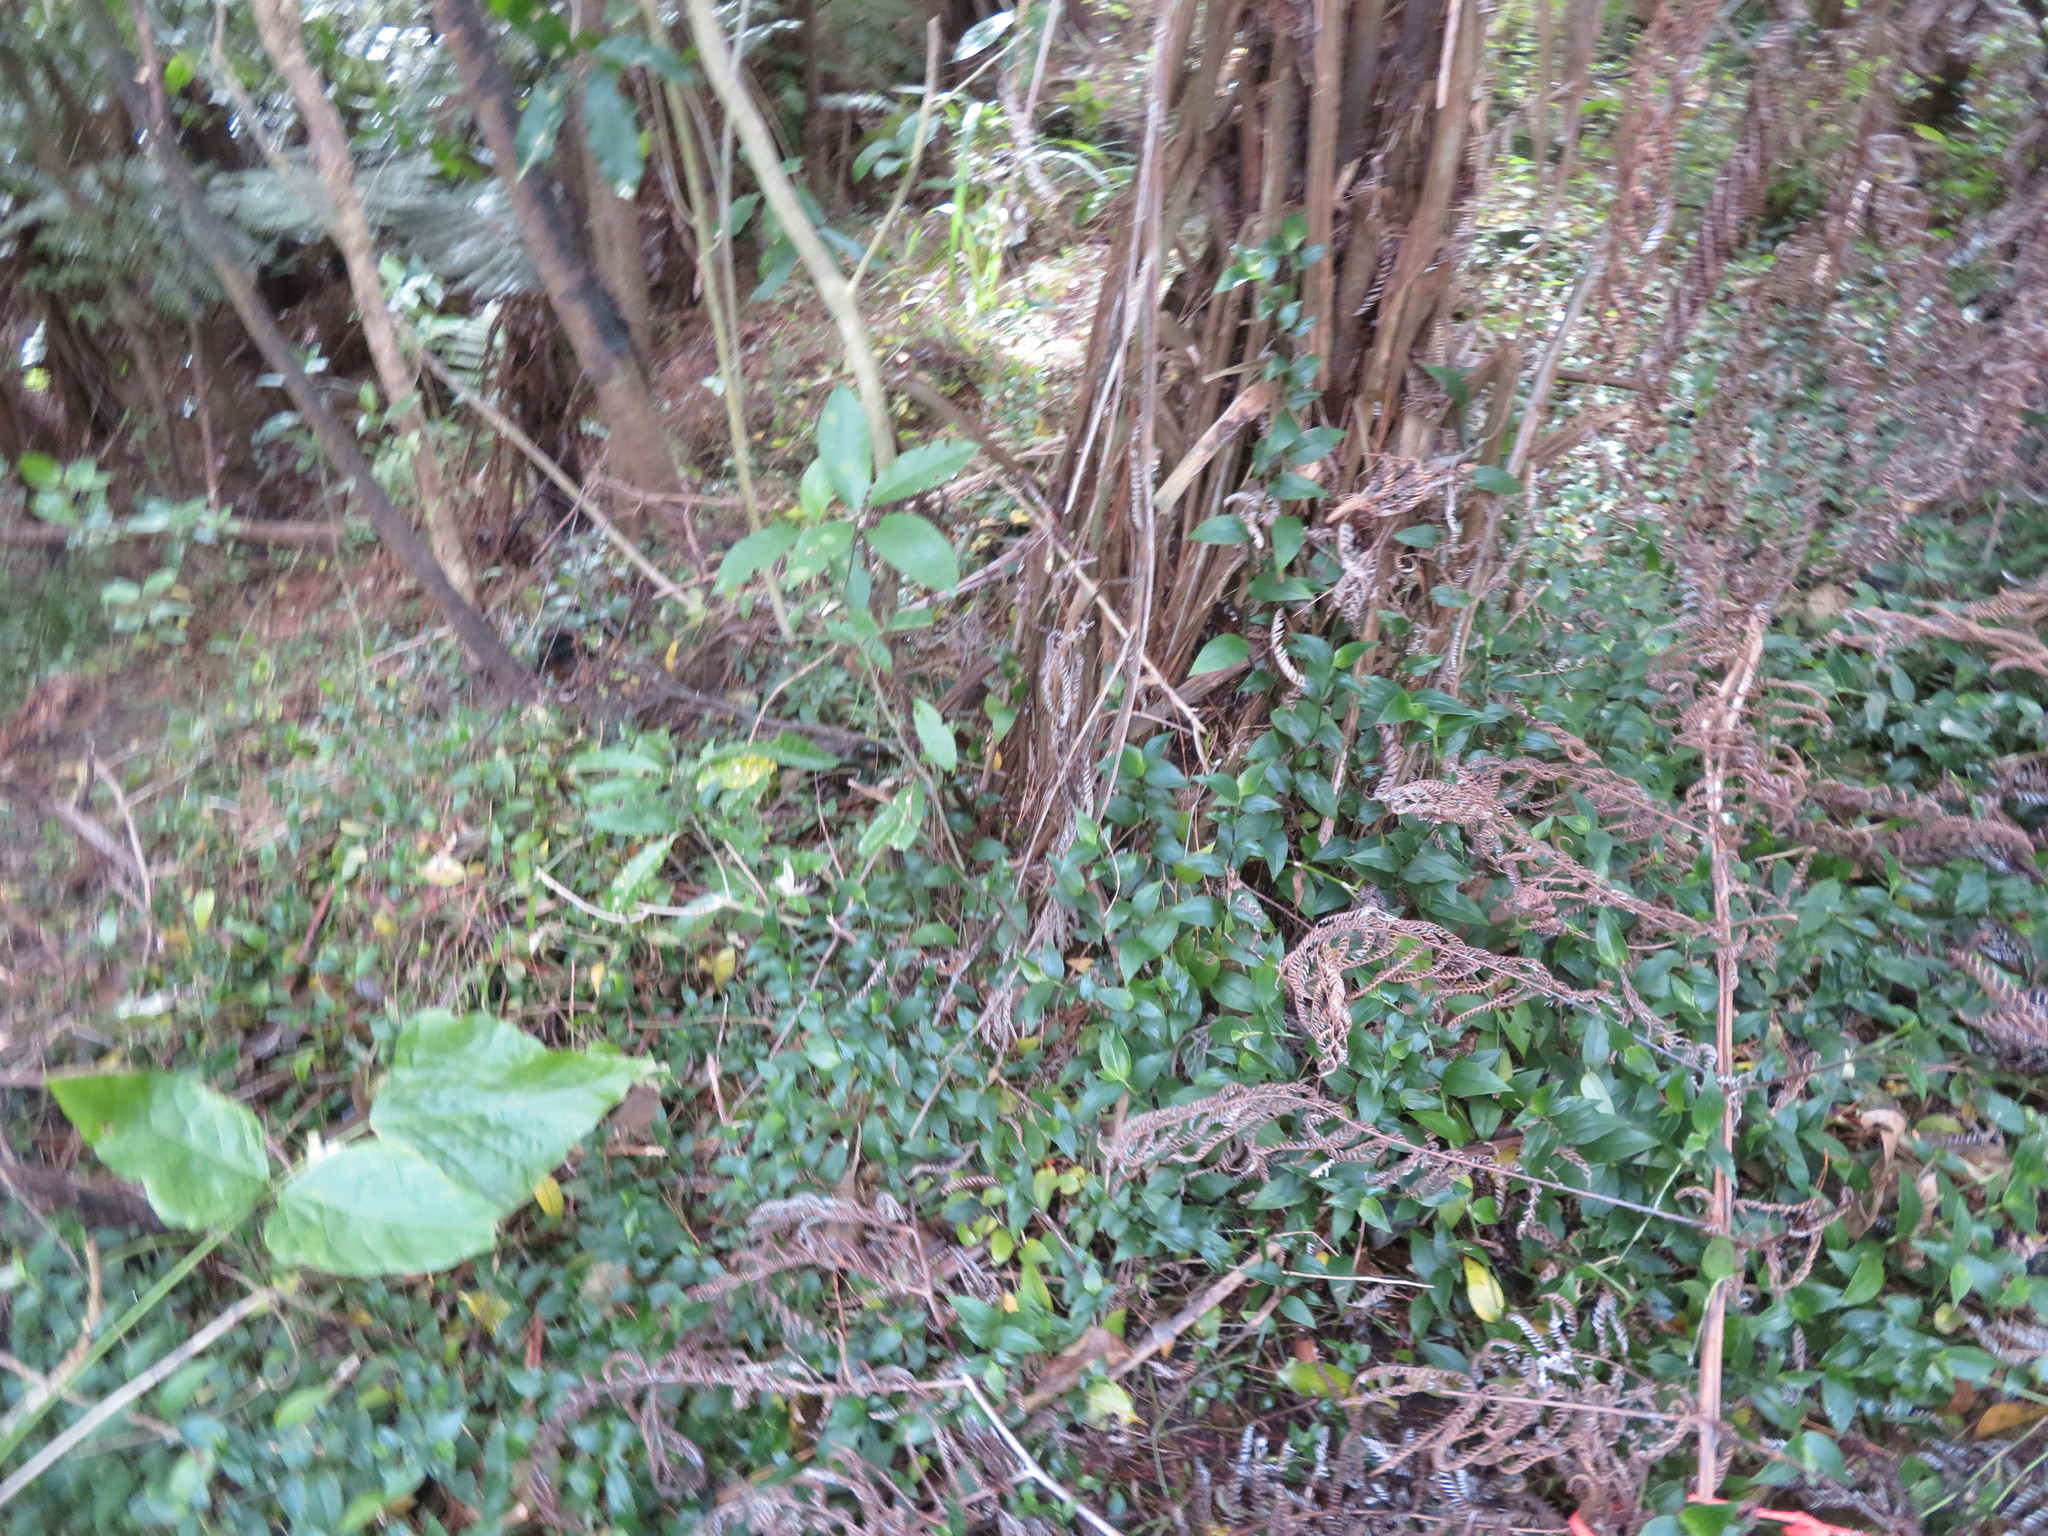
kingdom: Plantae
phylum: Tracheophyta
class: Liliopsida
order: Commelinales
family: Commelinaceae
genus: Tradescantia
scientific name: Tradescantia fluminensis
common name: Wandering-jew
